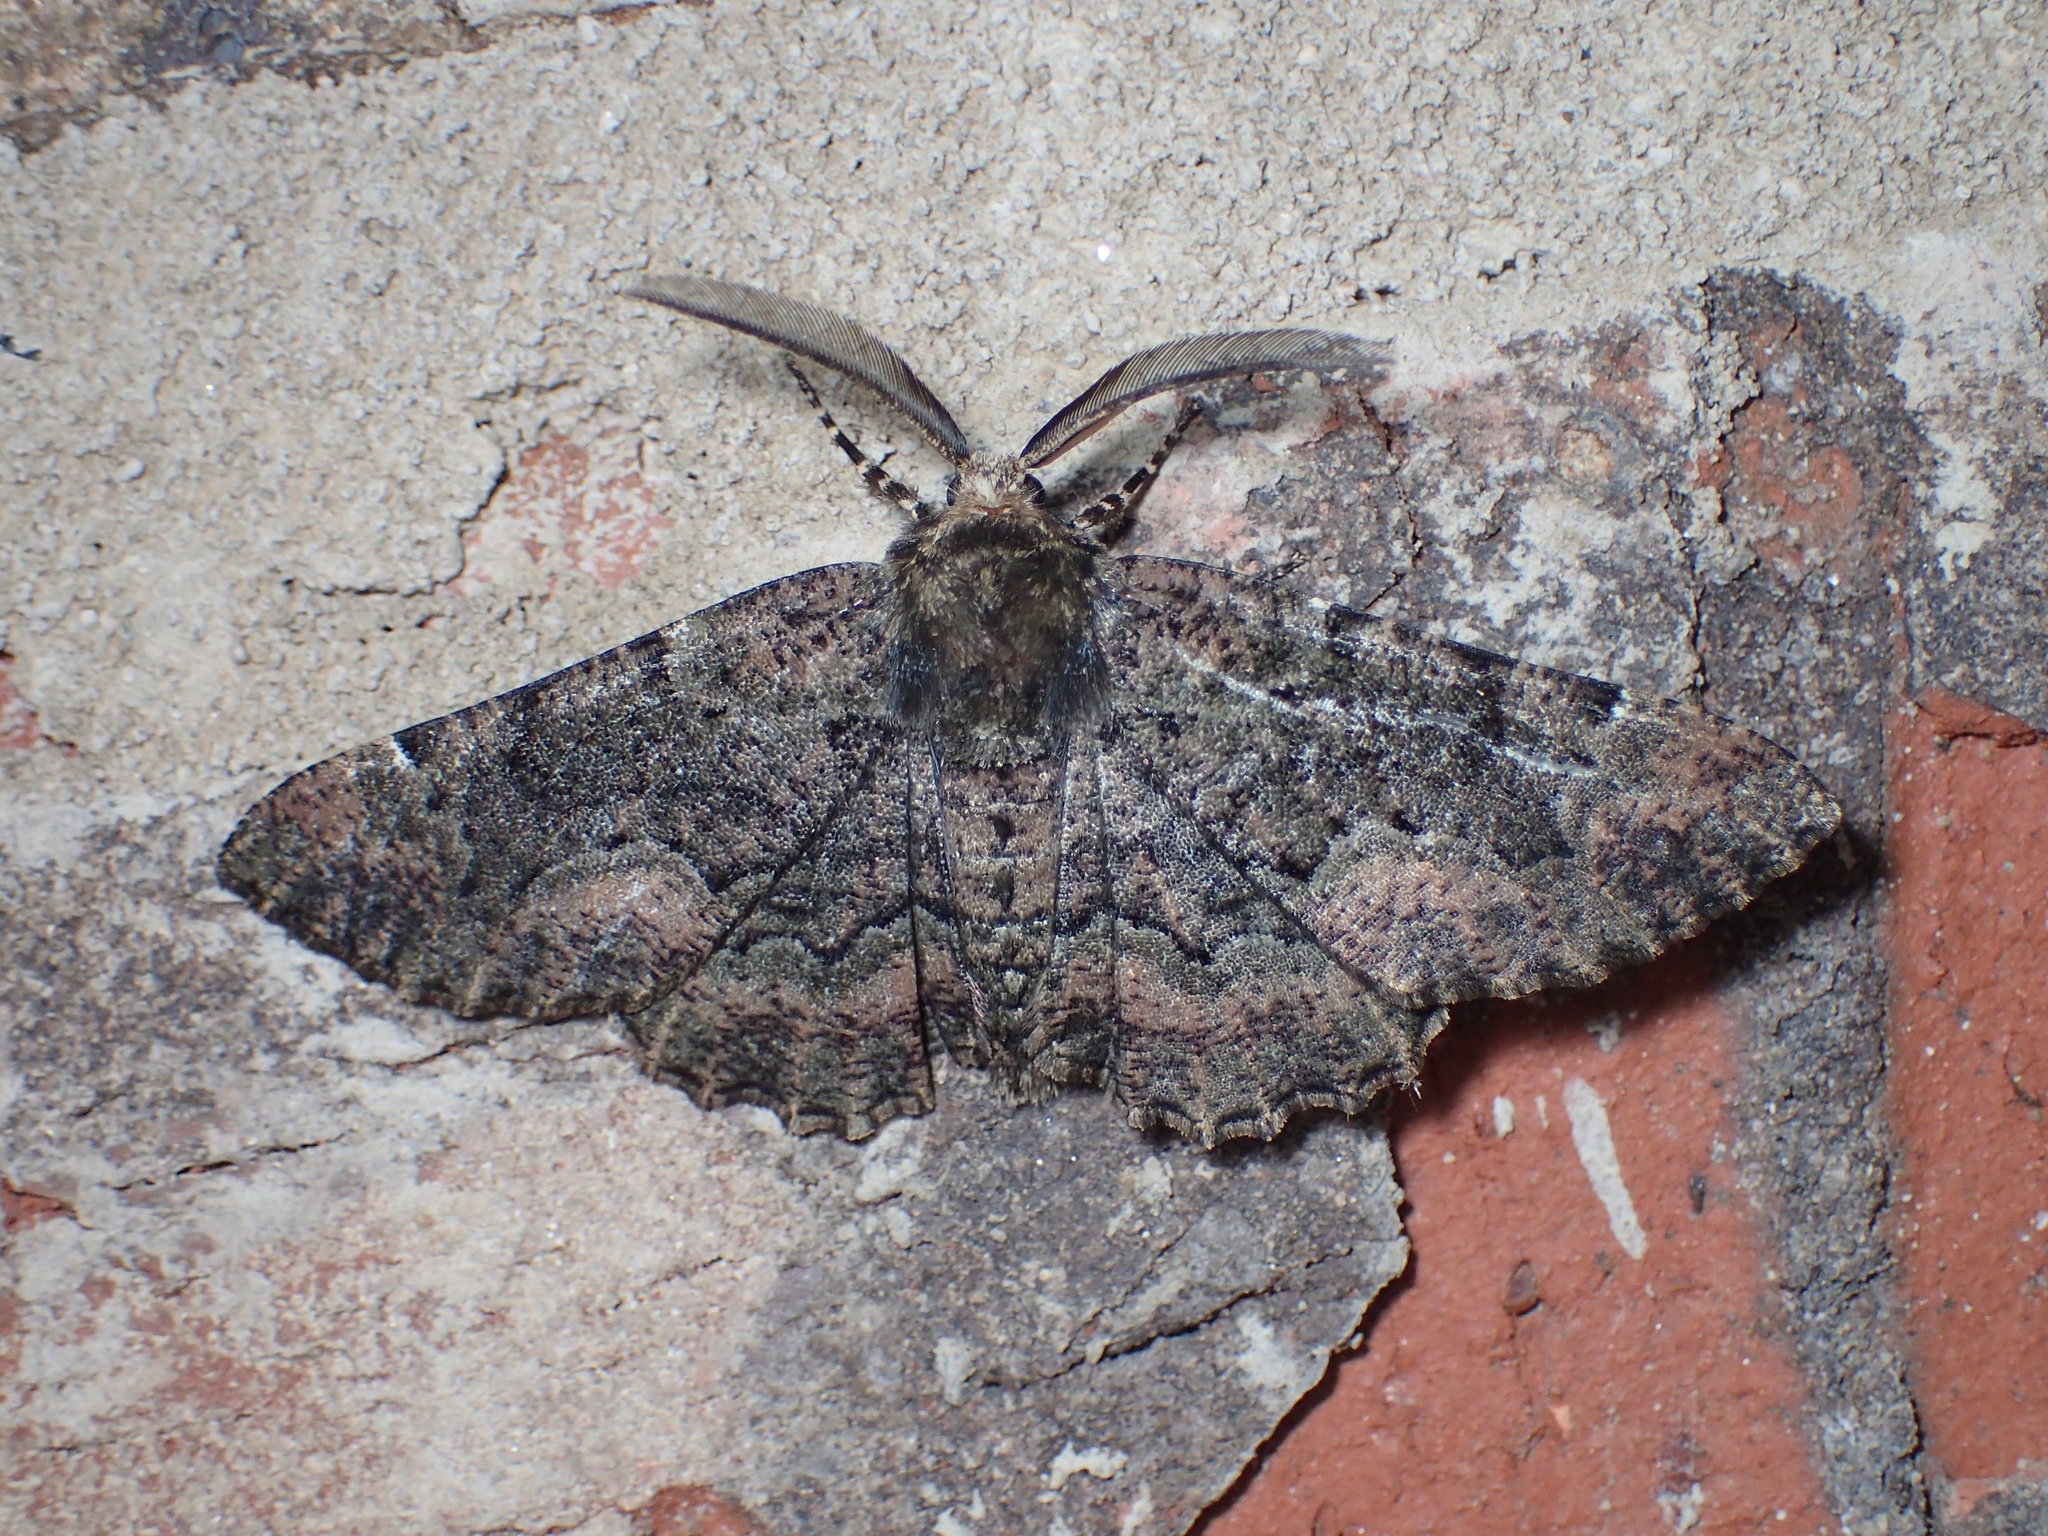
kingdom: Animalia
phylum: Arthropoda
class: Insecta
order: Lepidoptera
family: Geometridae
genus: Phaeoura
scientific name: Phaeoura quernaria
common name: Oak beauty
